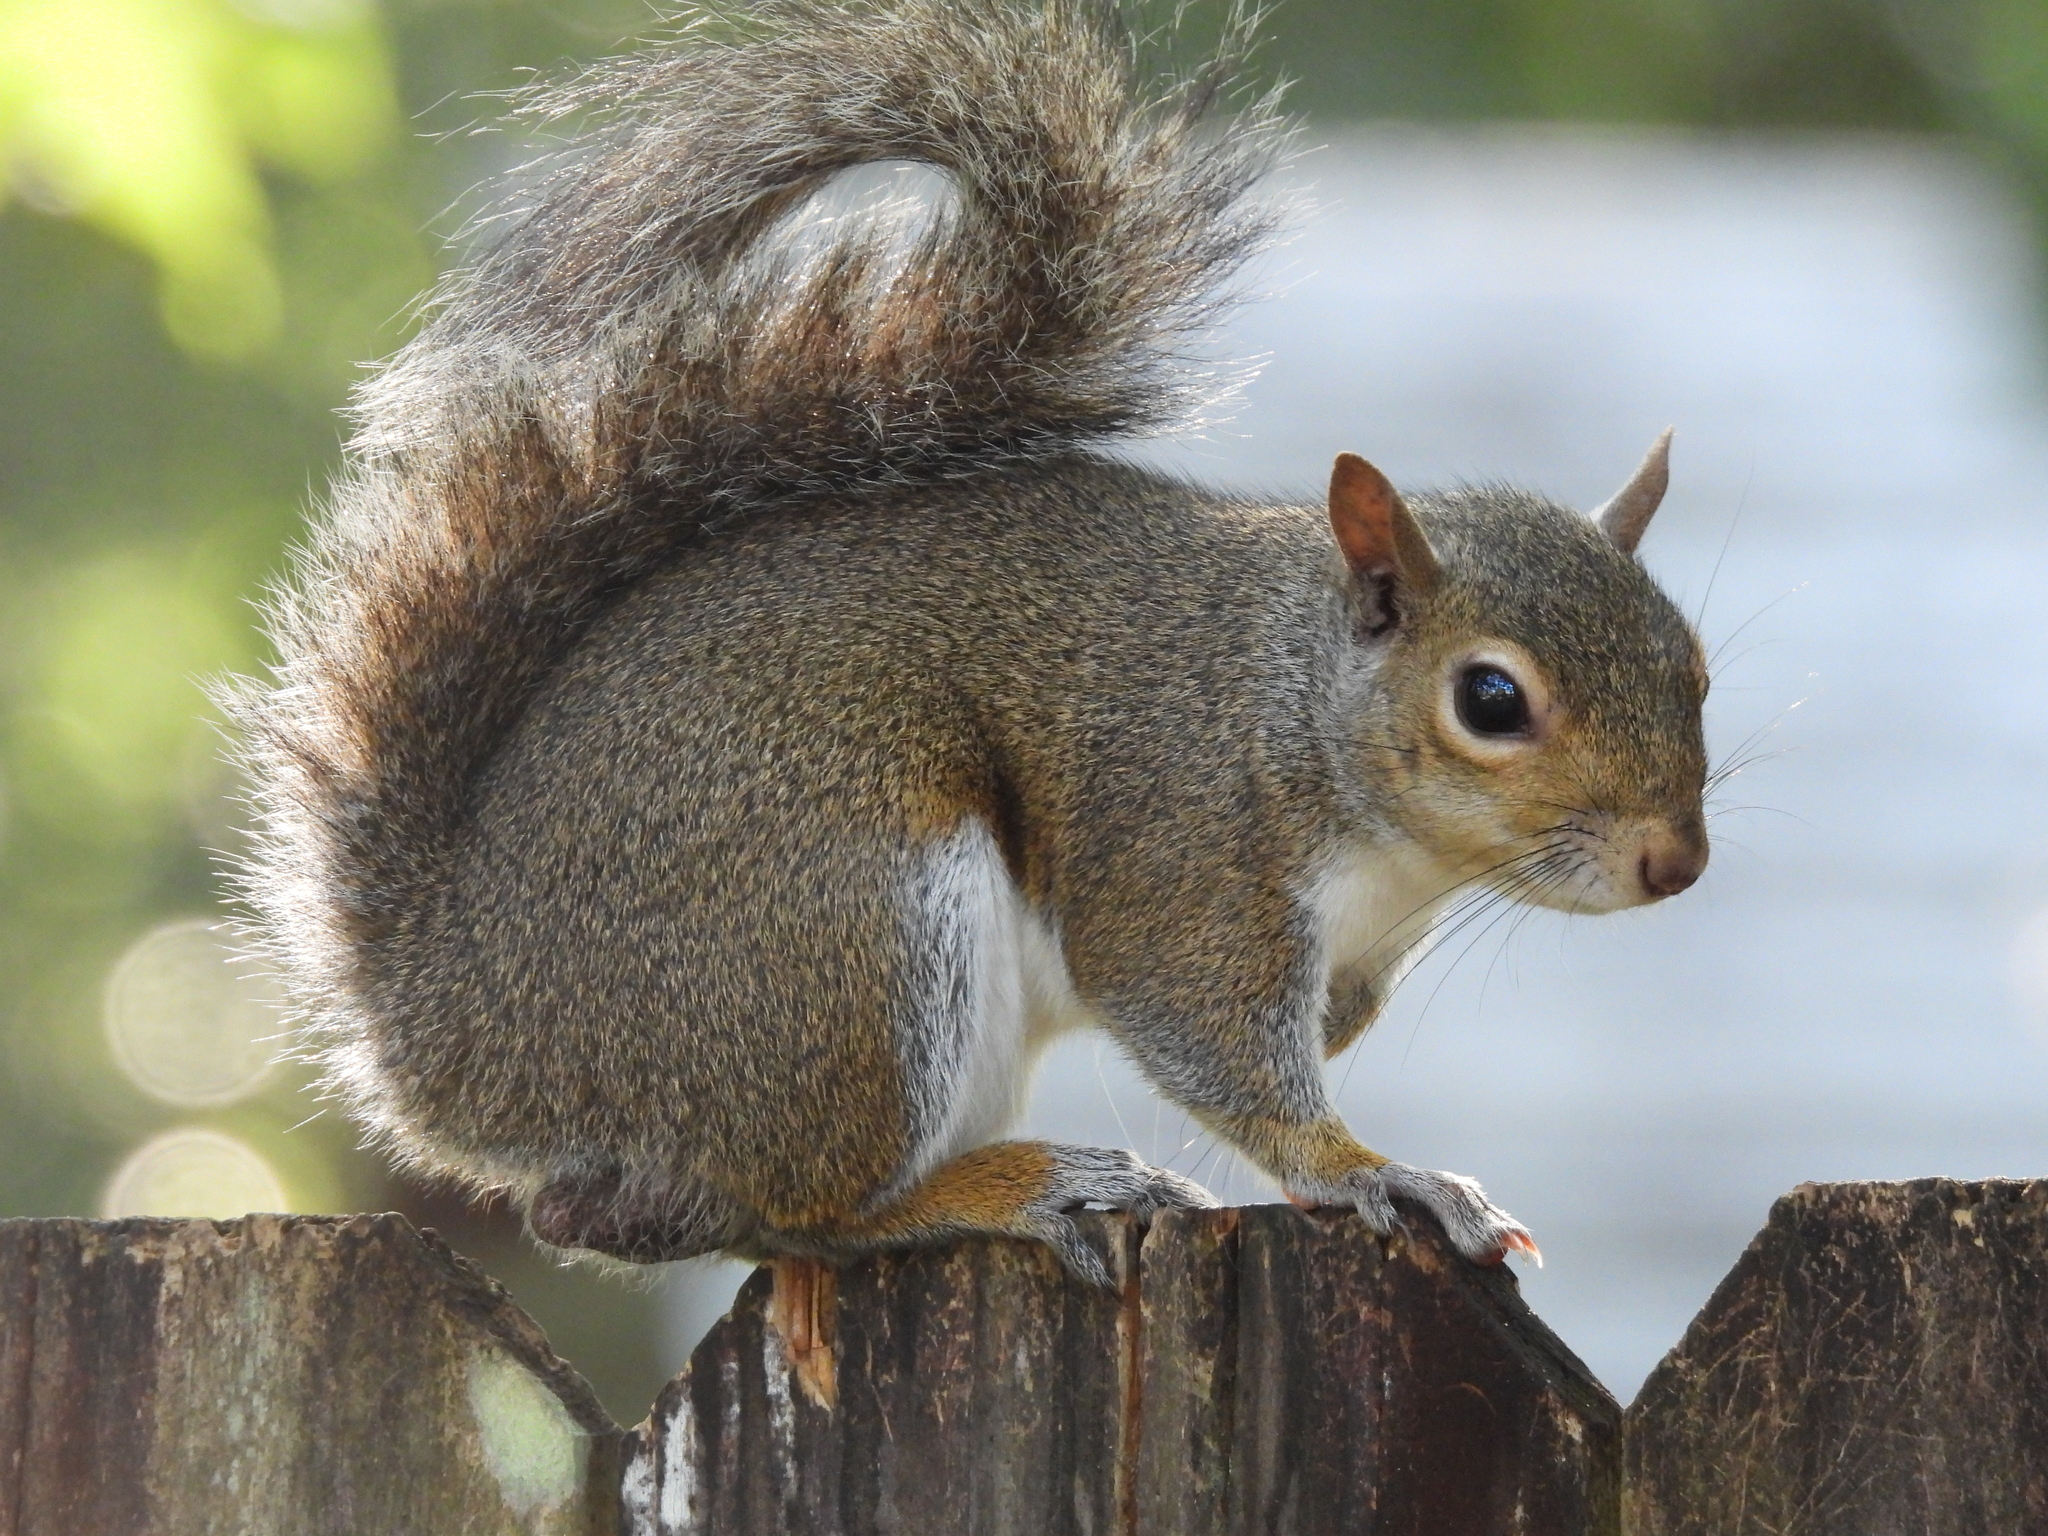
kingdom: Animalia
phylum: Chordata
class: Mammalia
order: Rodentia
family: Sciuridae
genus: Sciurus
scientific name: Sciurus carolinensis
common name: Eastern gray squirrel
